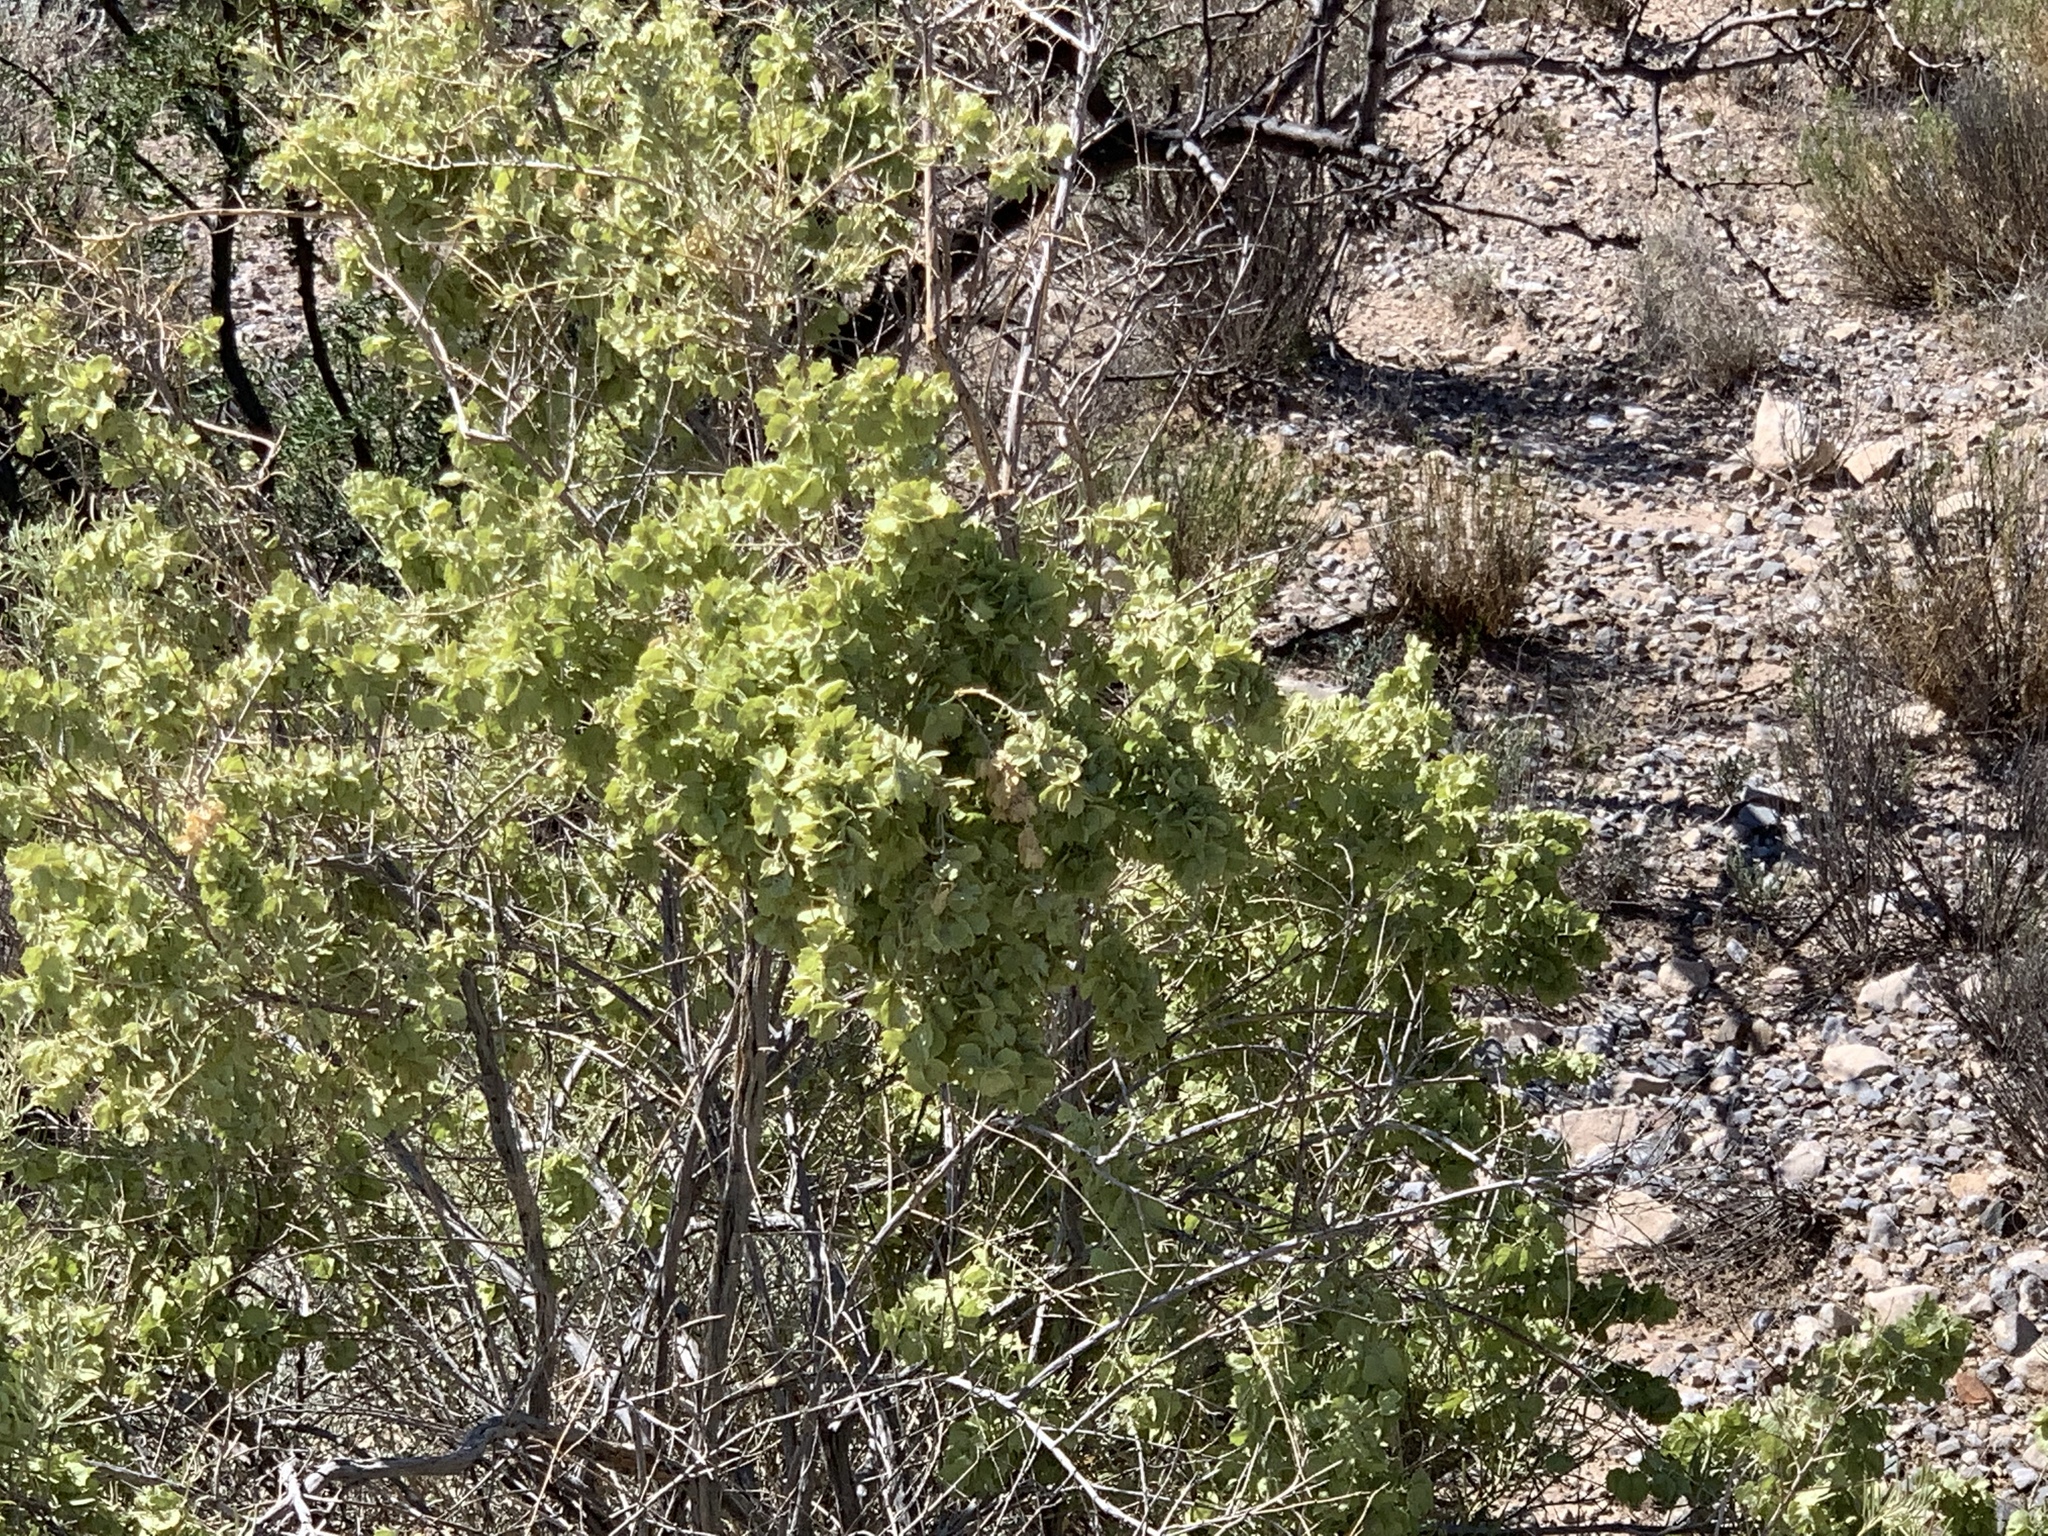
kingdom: Plantae
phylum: Tracheophyta
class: Magnoliopsida
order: Caryophyllales
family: Amaranthaceae
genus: Atriplex
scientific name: Atriplex canescens
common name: Four-wing saltbush
